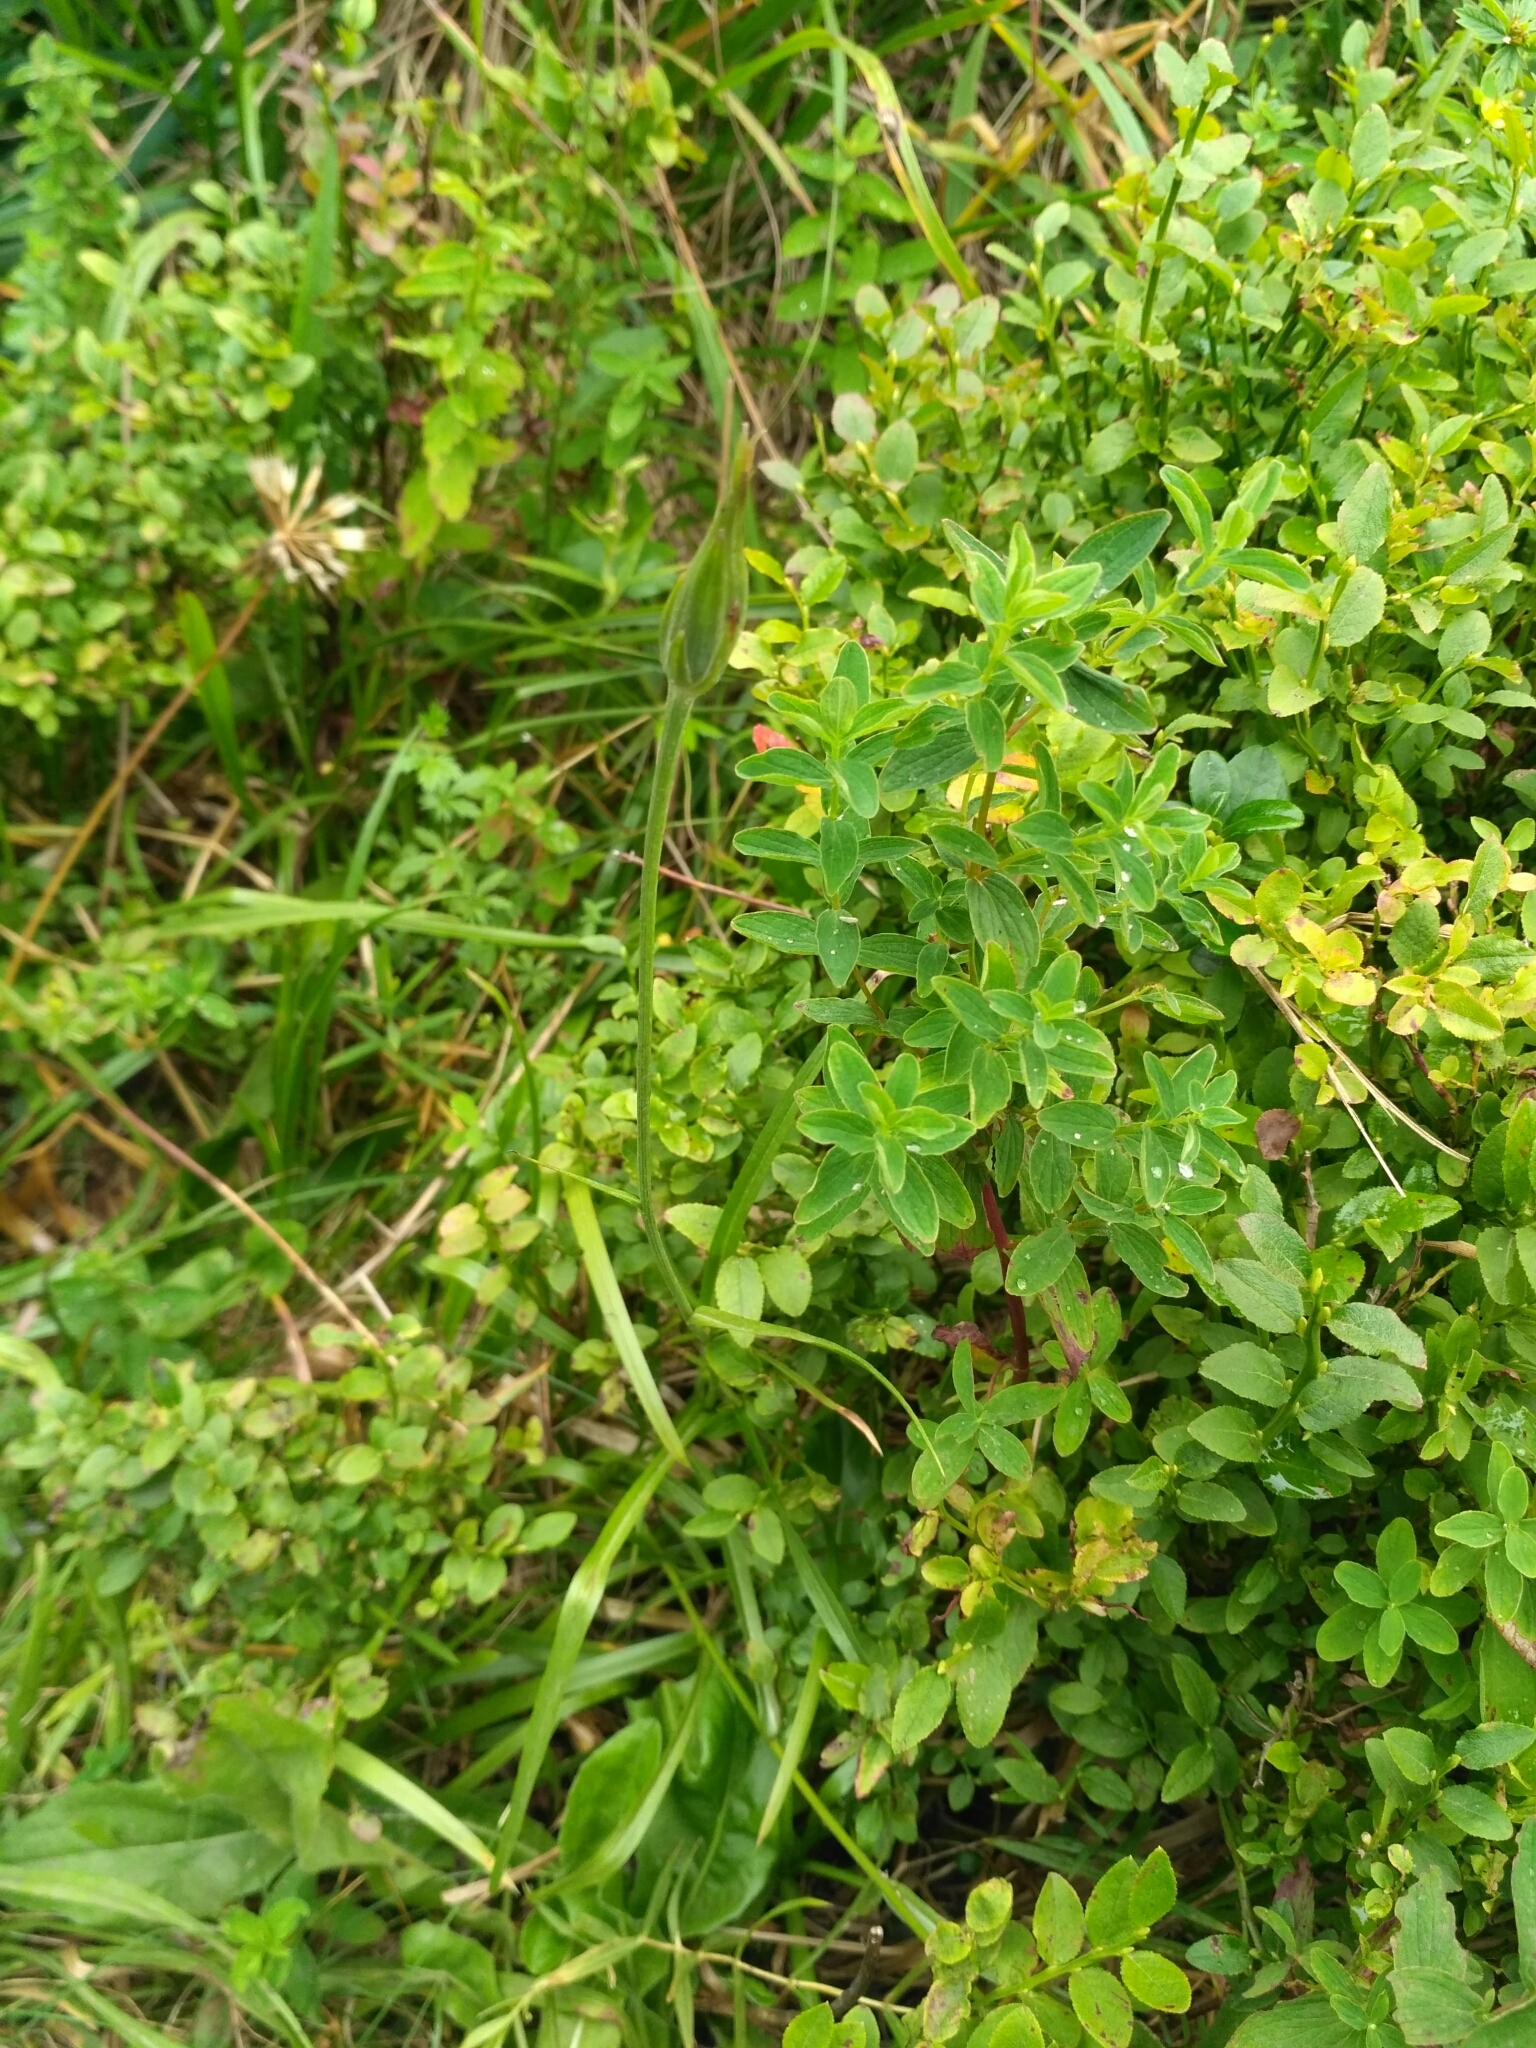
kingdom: Plantae
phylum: Tracheophyta
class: Magnoliopsida
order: Asterales
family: Asteraceae
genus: Scorzonera
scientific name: Scorzonera rosea
